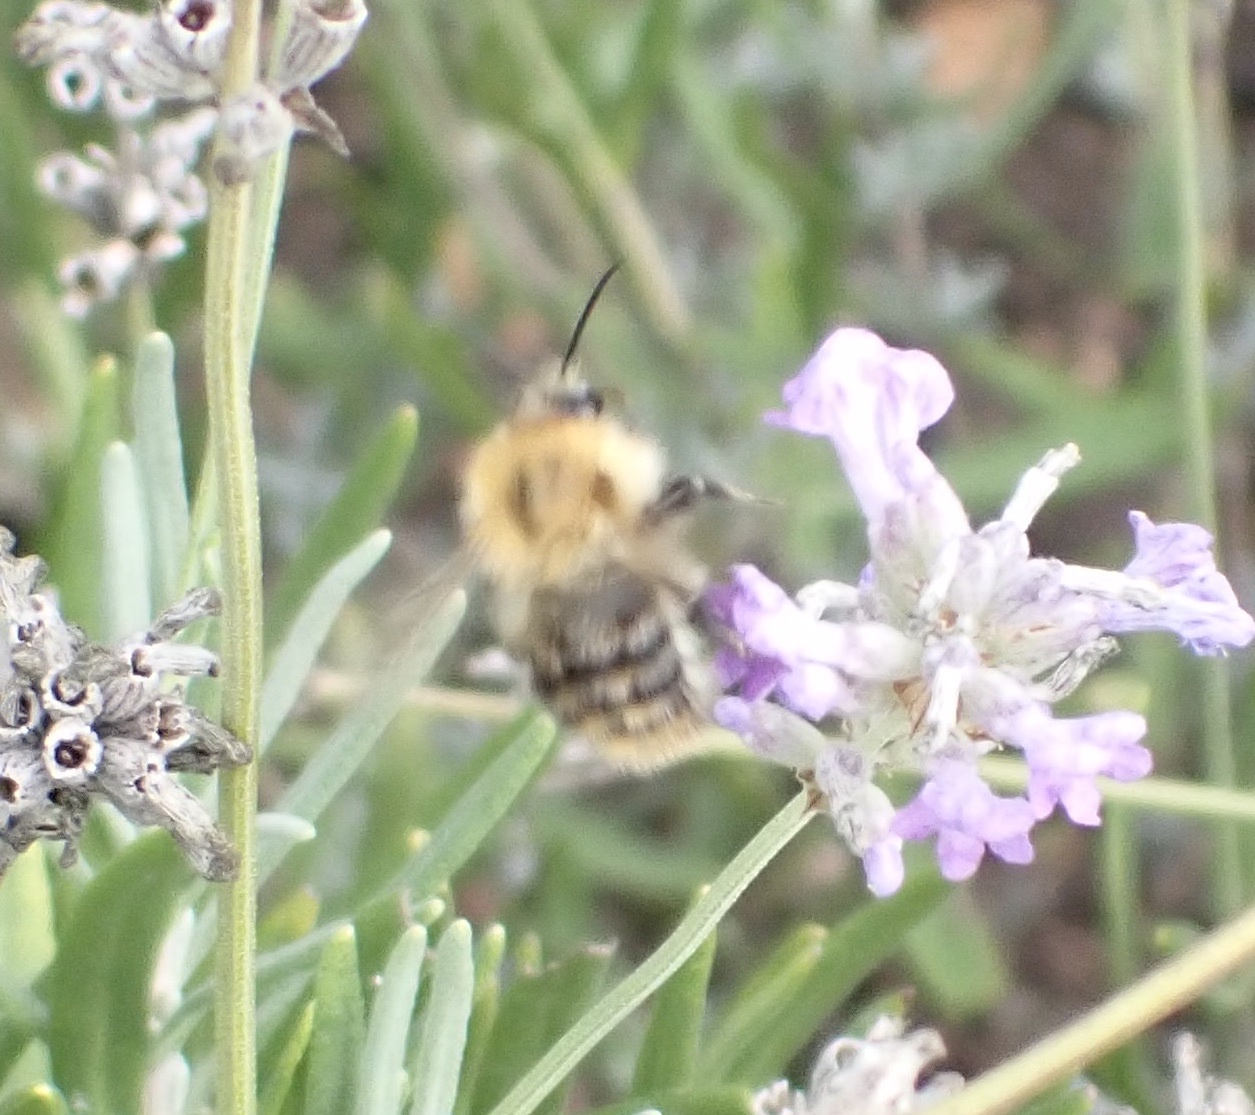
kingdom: Animalia
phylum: Arthropoda
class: Insecta
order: Hymenoptera
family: Apidae
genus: Bombus
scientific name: Bombus pascuorum
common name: Common carder bee
